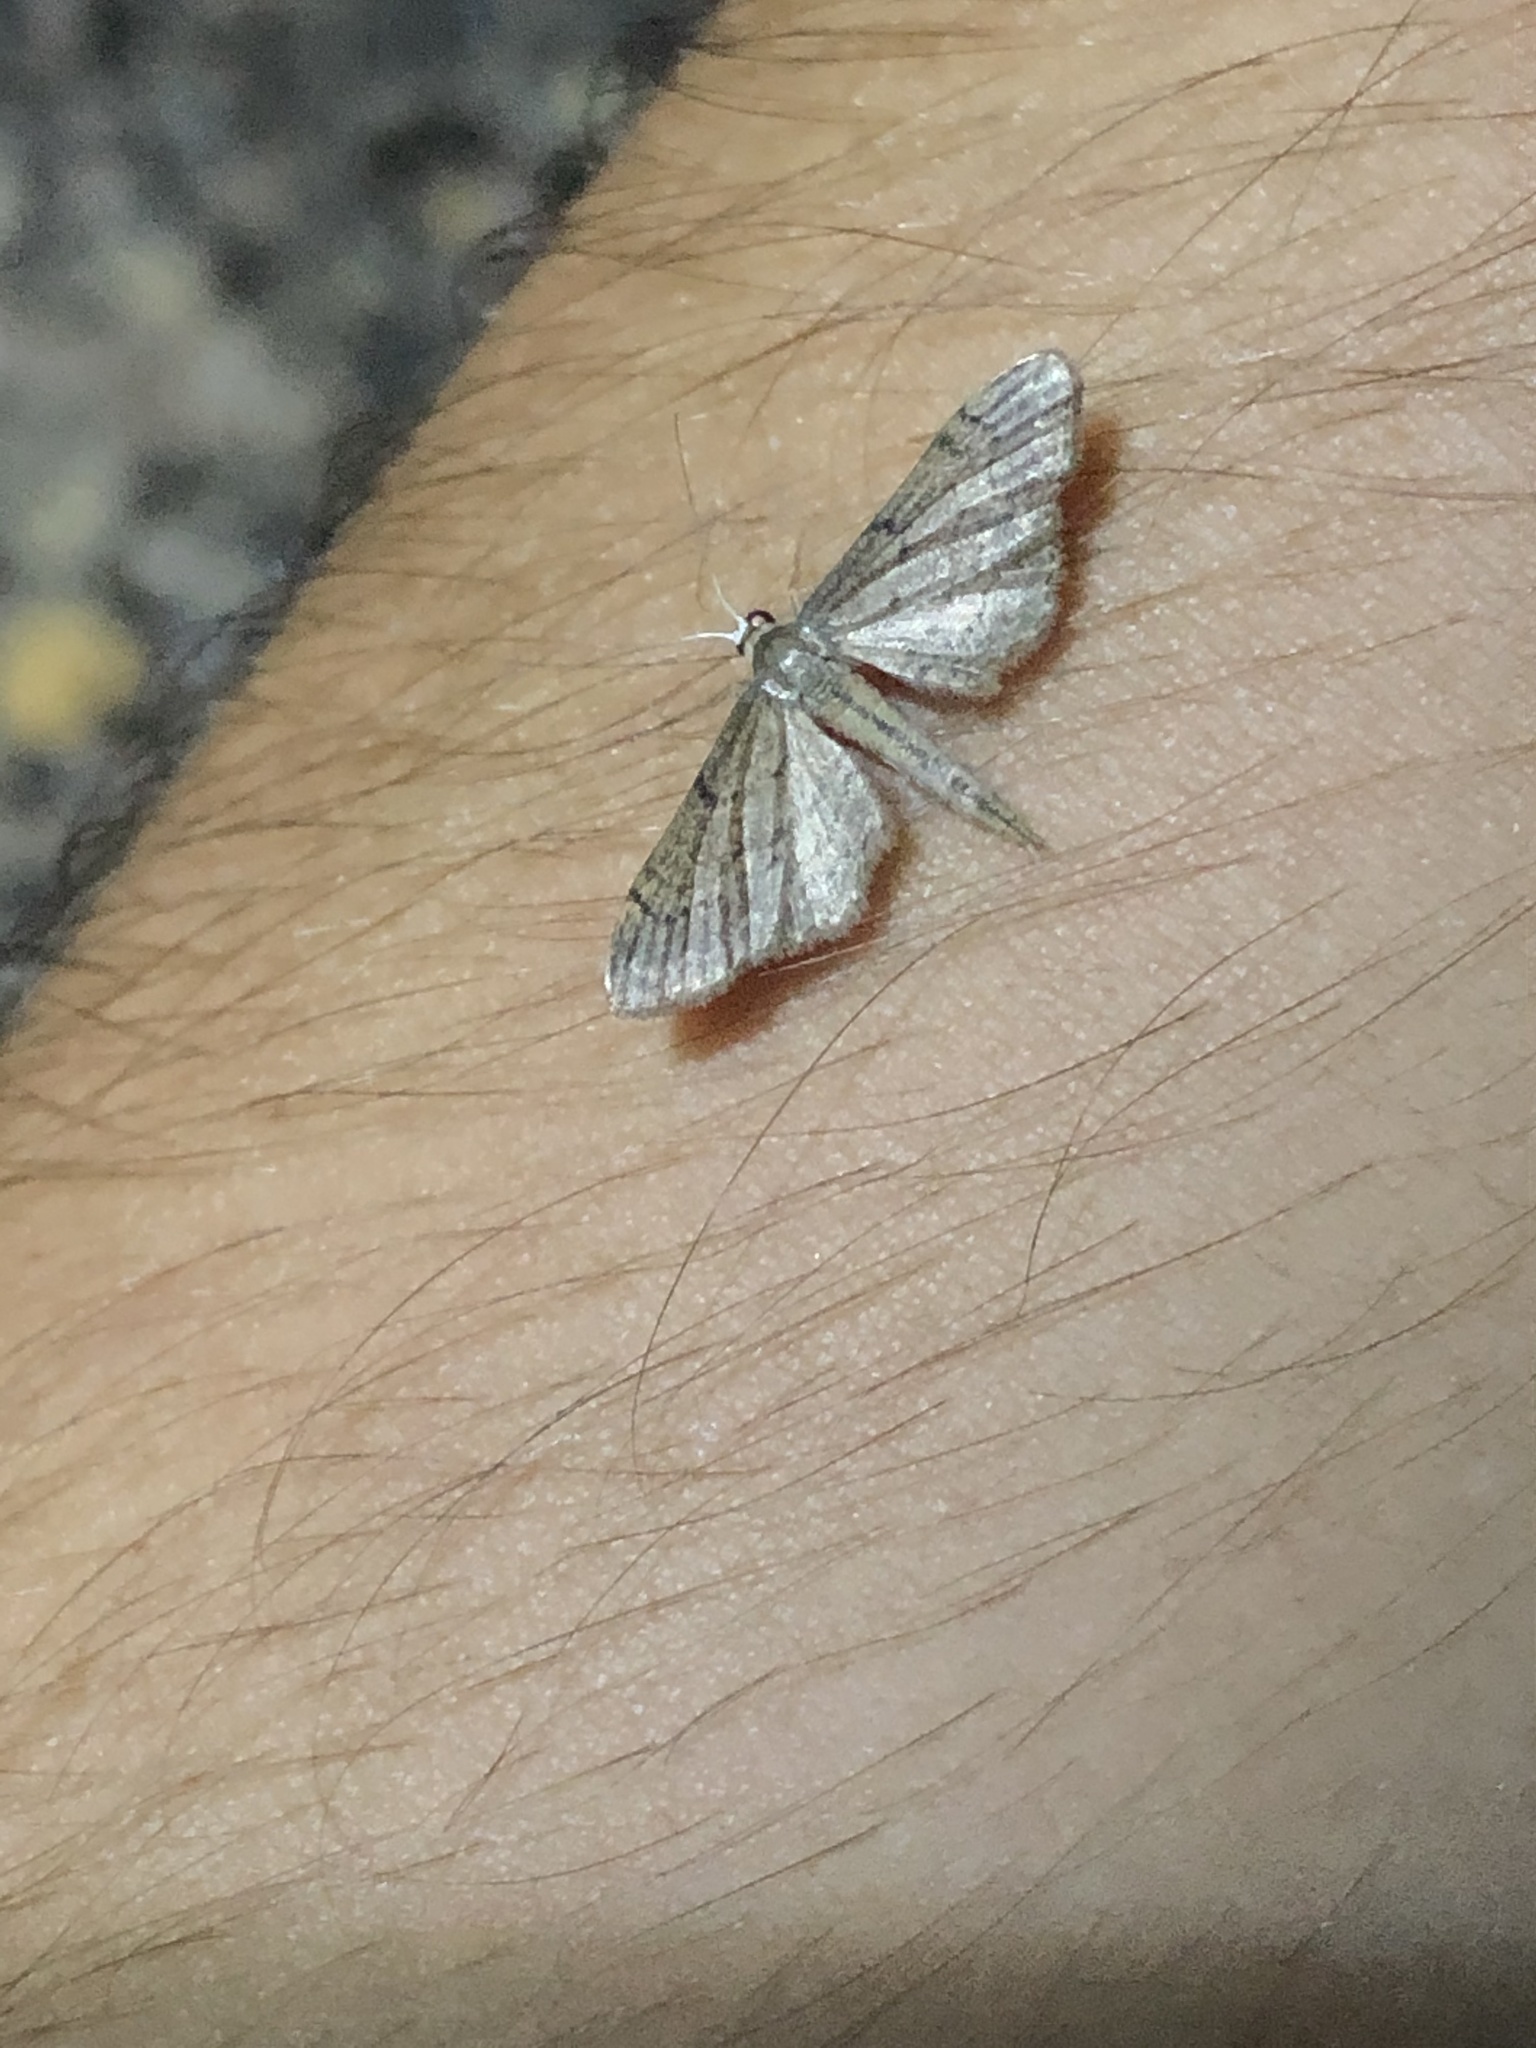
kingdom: Animalia
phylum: Arthropoda
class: Insecta
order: Lepidoptera
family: Geometridae
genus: Euacidalia
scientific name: Euacidalia sericearia
